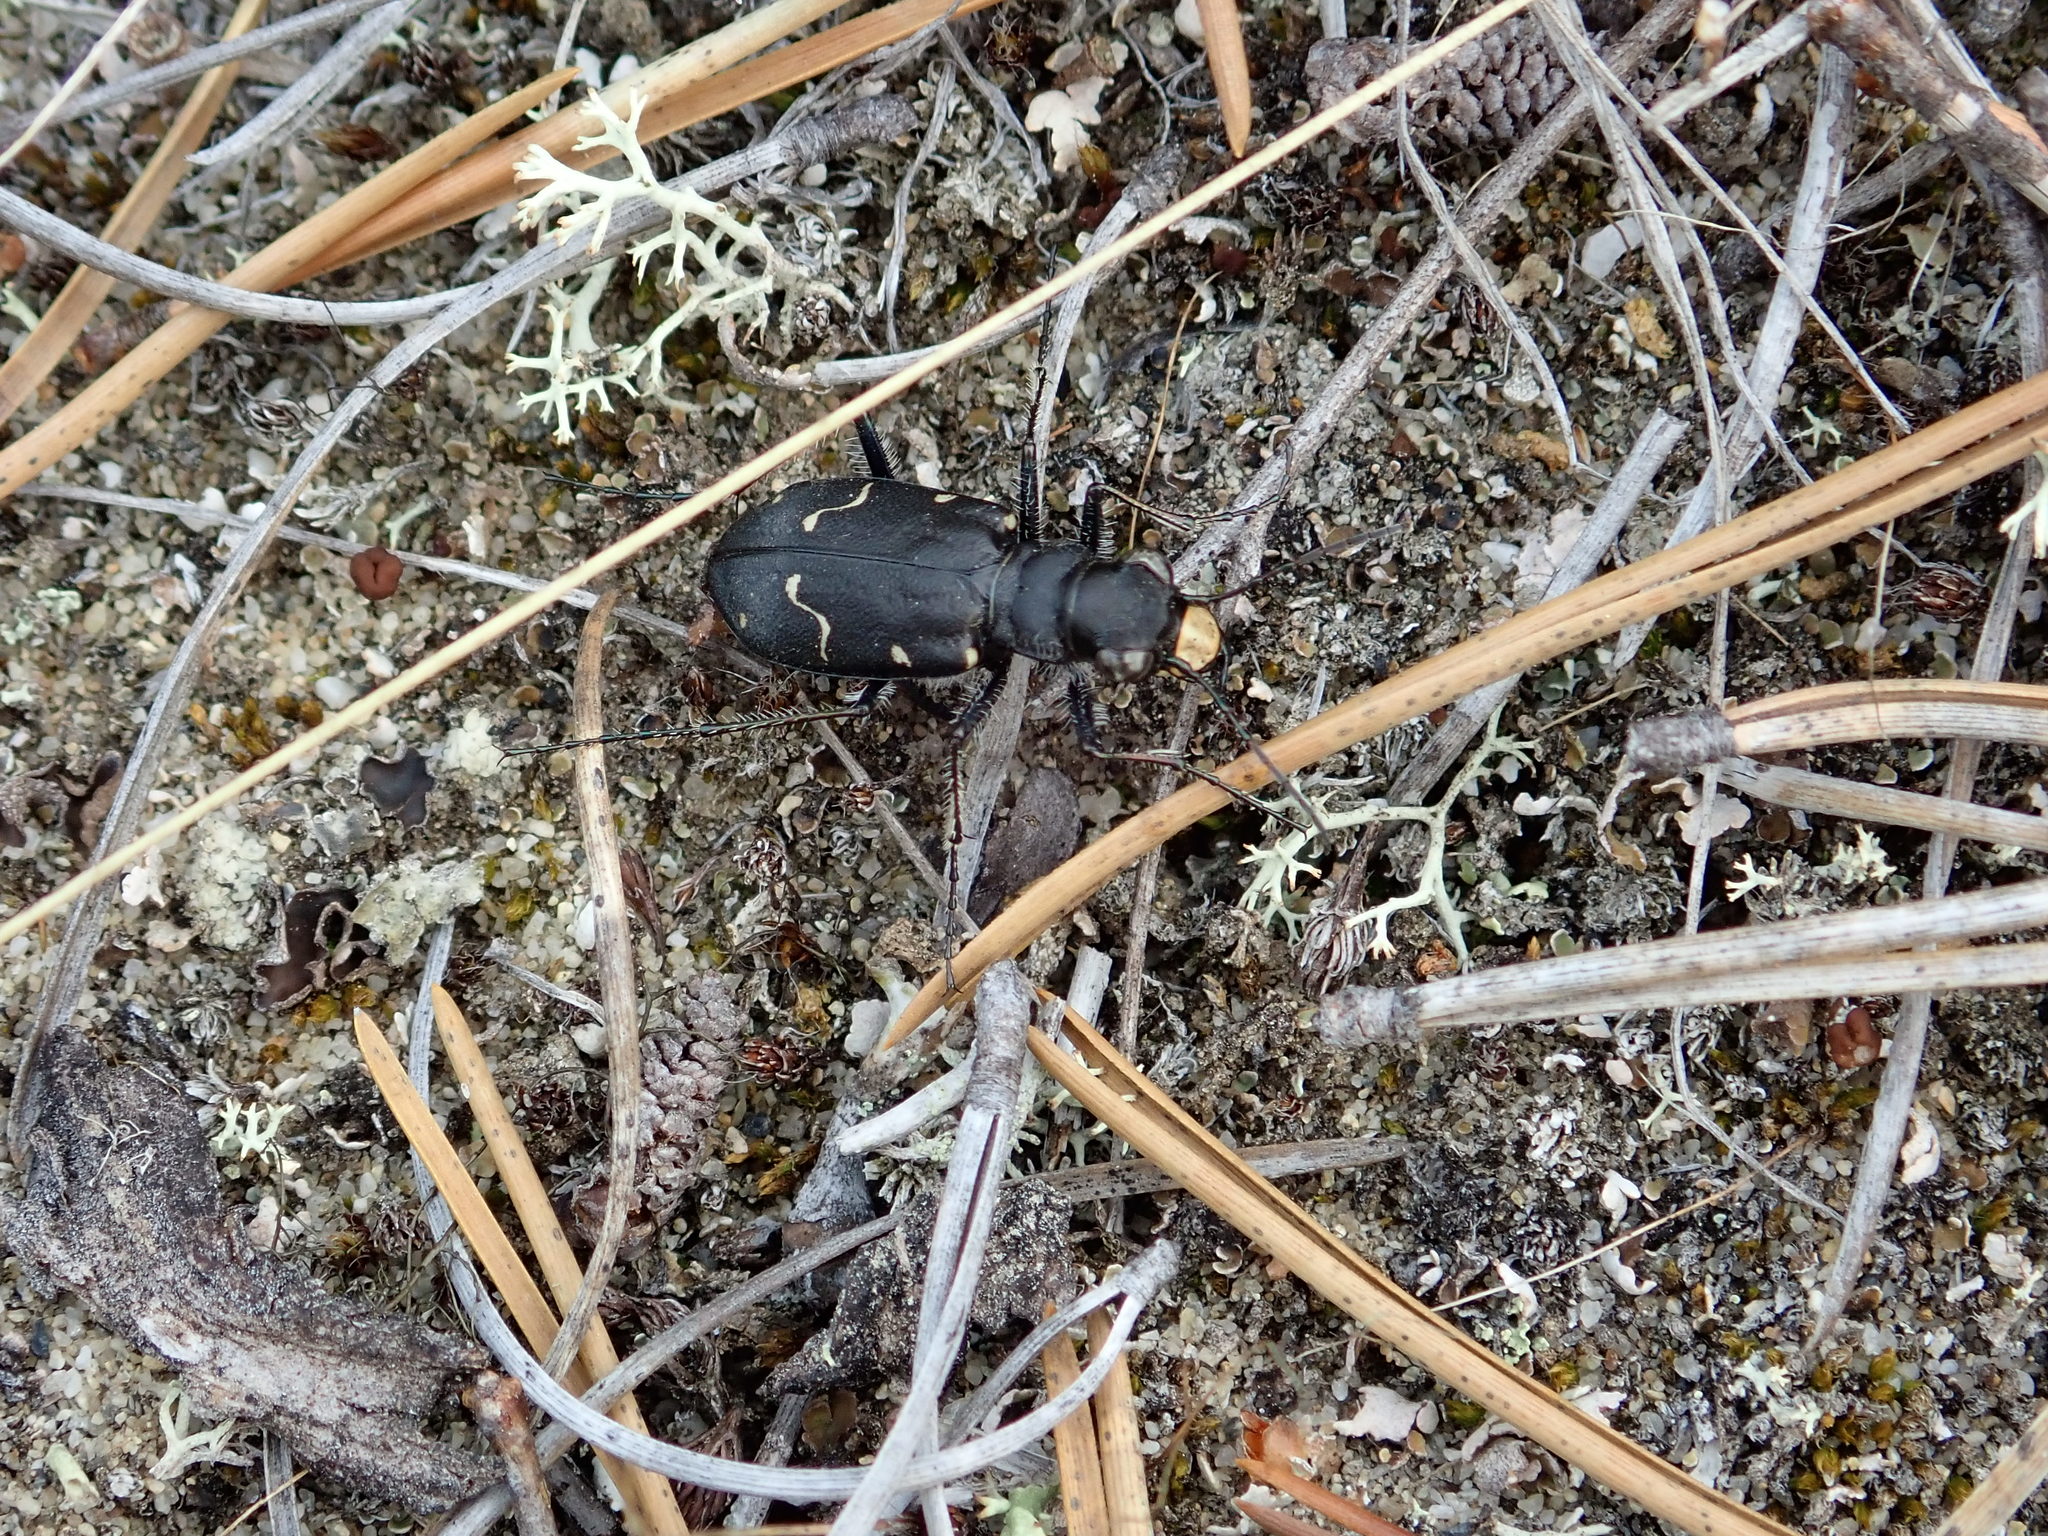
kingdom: Animalia
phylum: Arthropoda
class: Insecta
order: Coleoptera
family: Carabidae
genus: Cicindela
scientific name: Cicindela longilabris
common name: Boreal long-lipped tiger beetle
